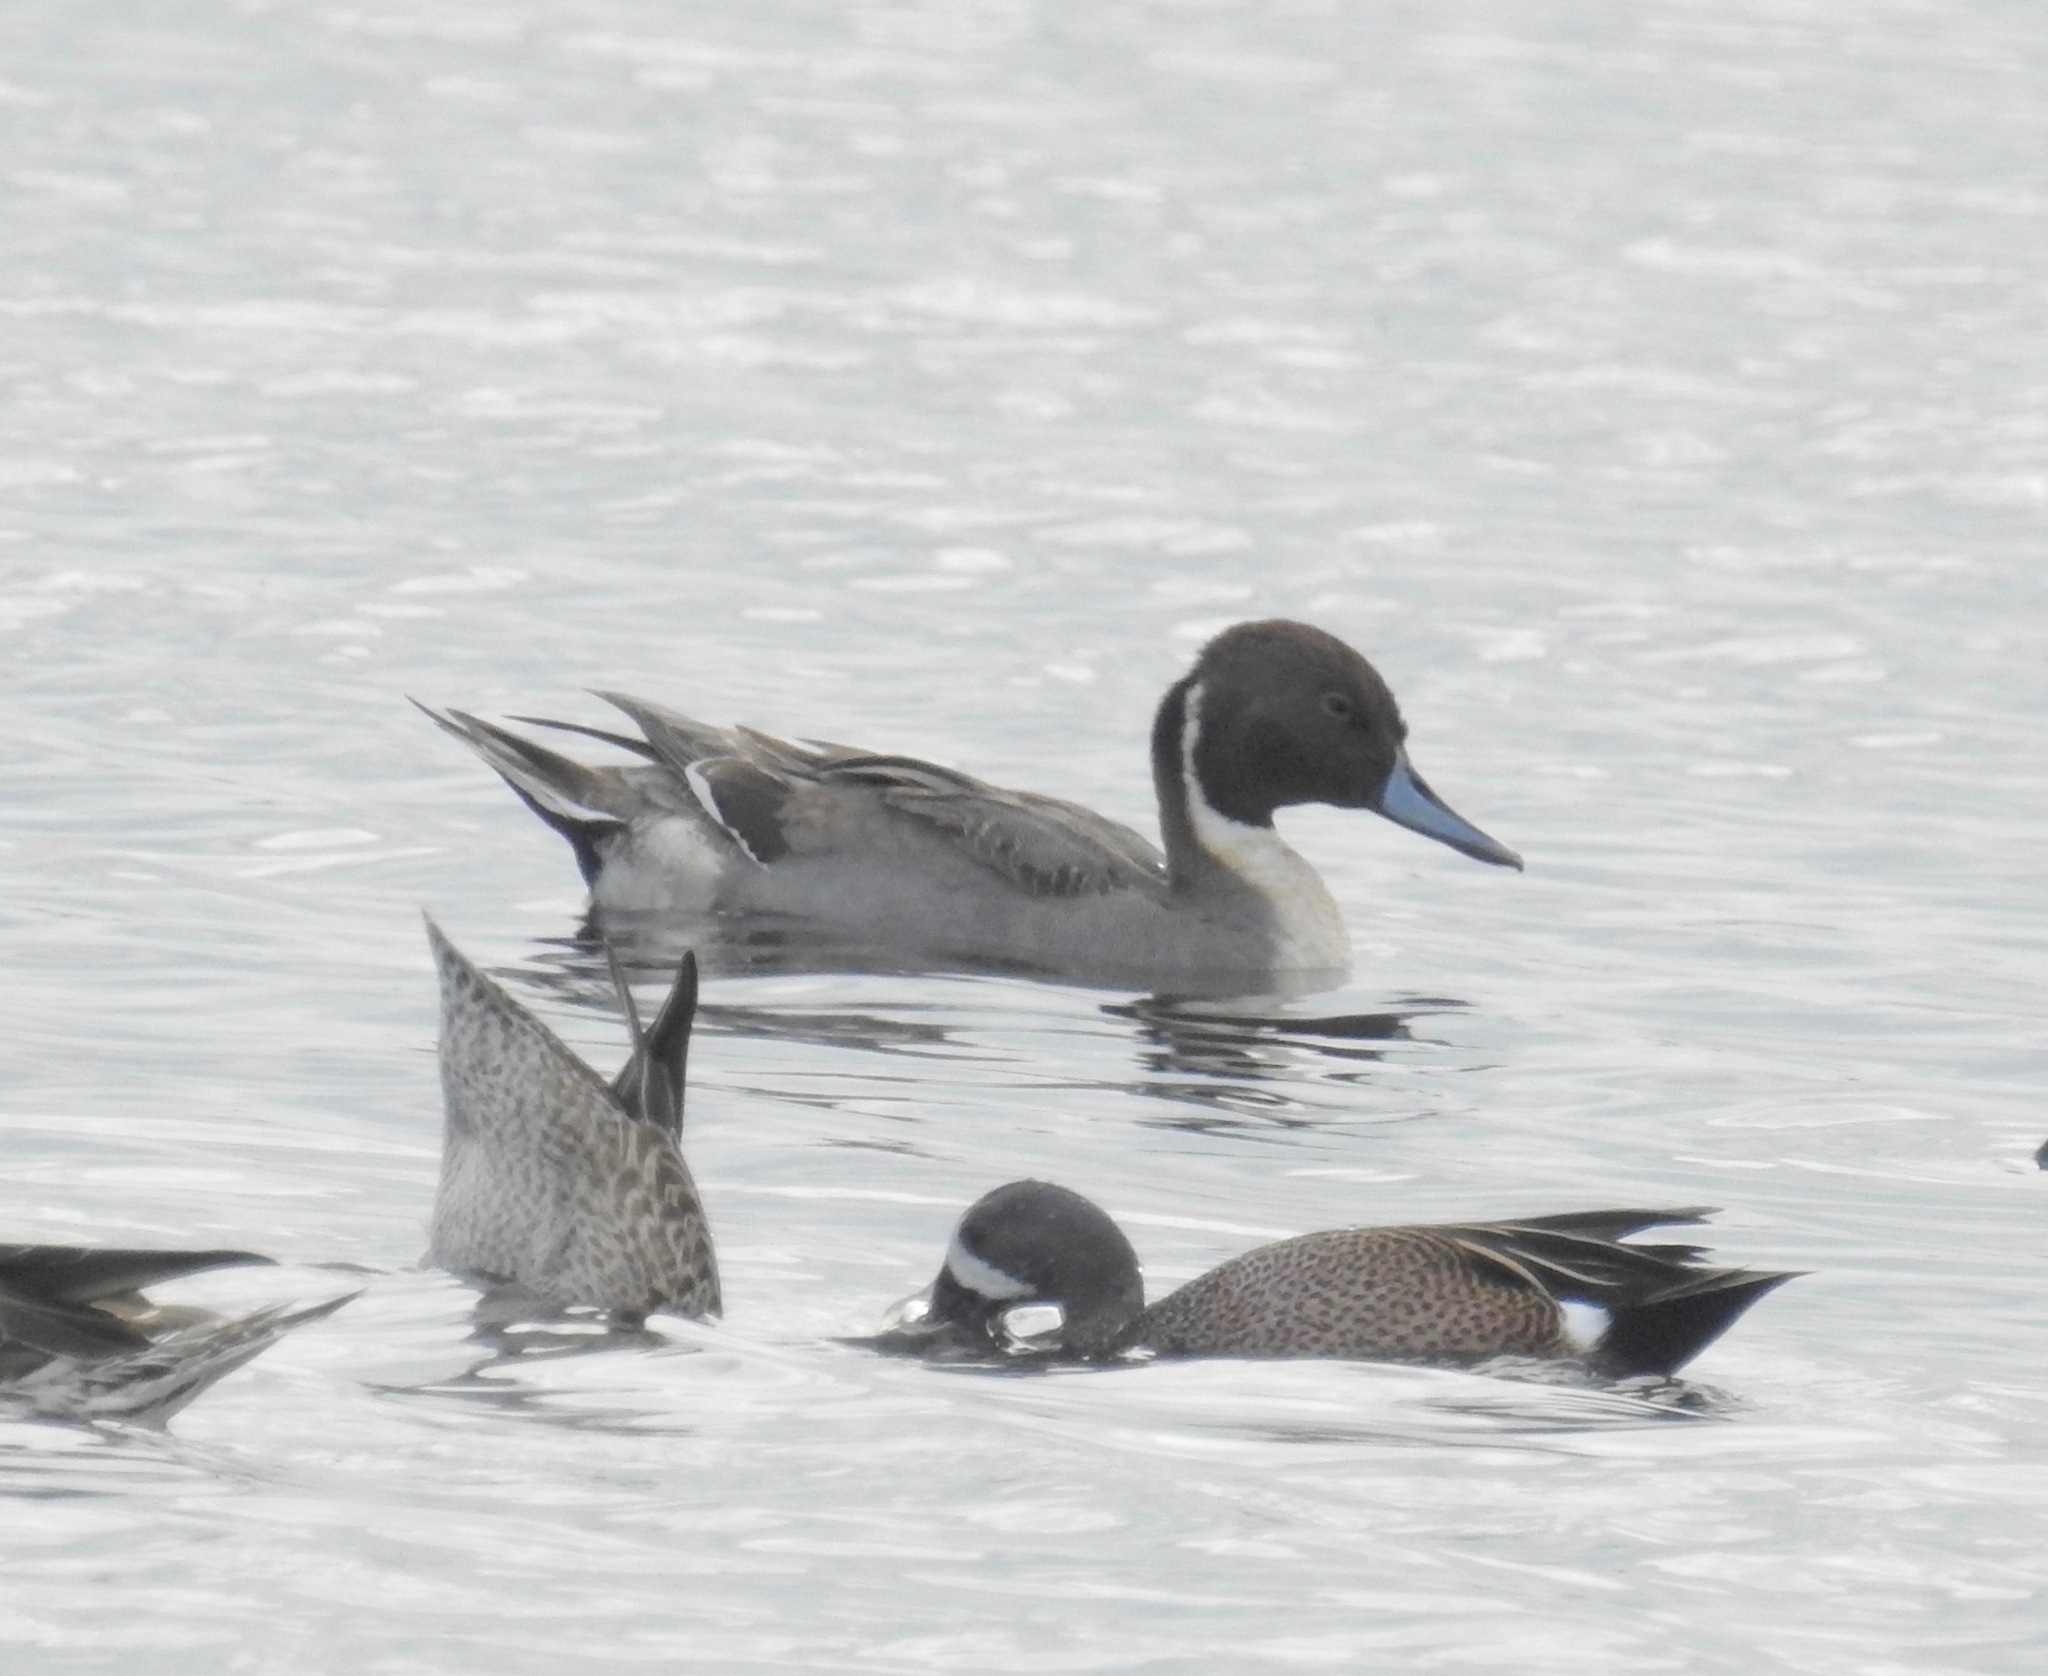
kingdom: Animalia
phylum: Chordata
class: Aves
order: Anseriformes
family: Anatidae
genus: Anas
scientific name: Anas acuta
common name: Northern pintail
